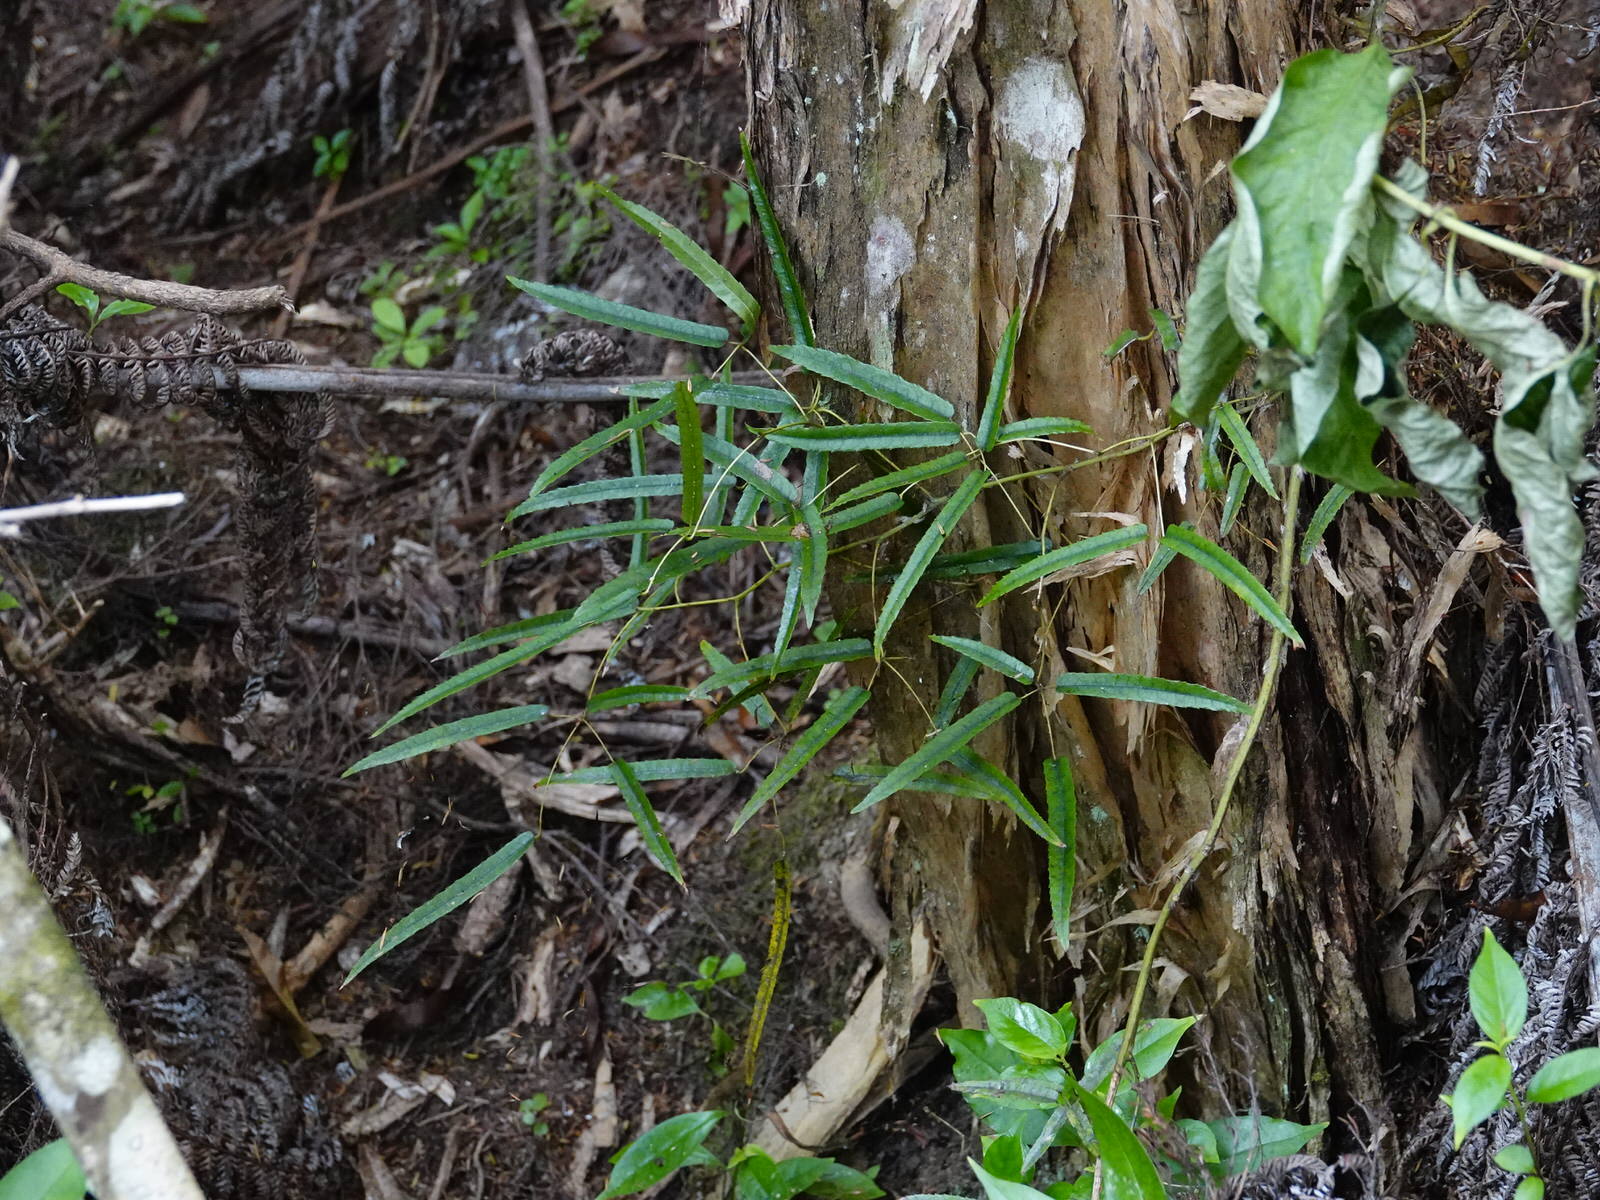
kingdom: Plantae
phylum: Tracheophyta
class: Magnoliopsida
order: Rosales
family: Rosaceae
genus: Rubus
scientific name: Rubus cissoides
